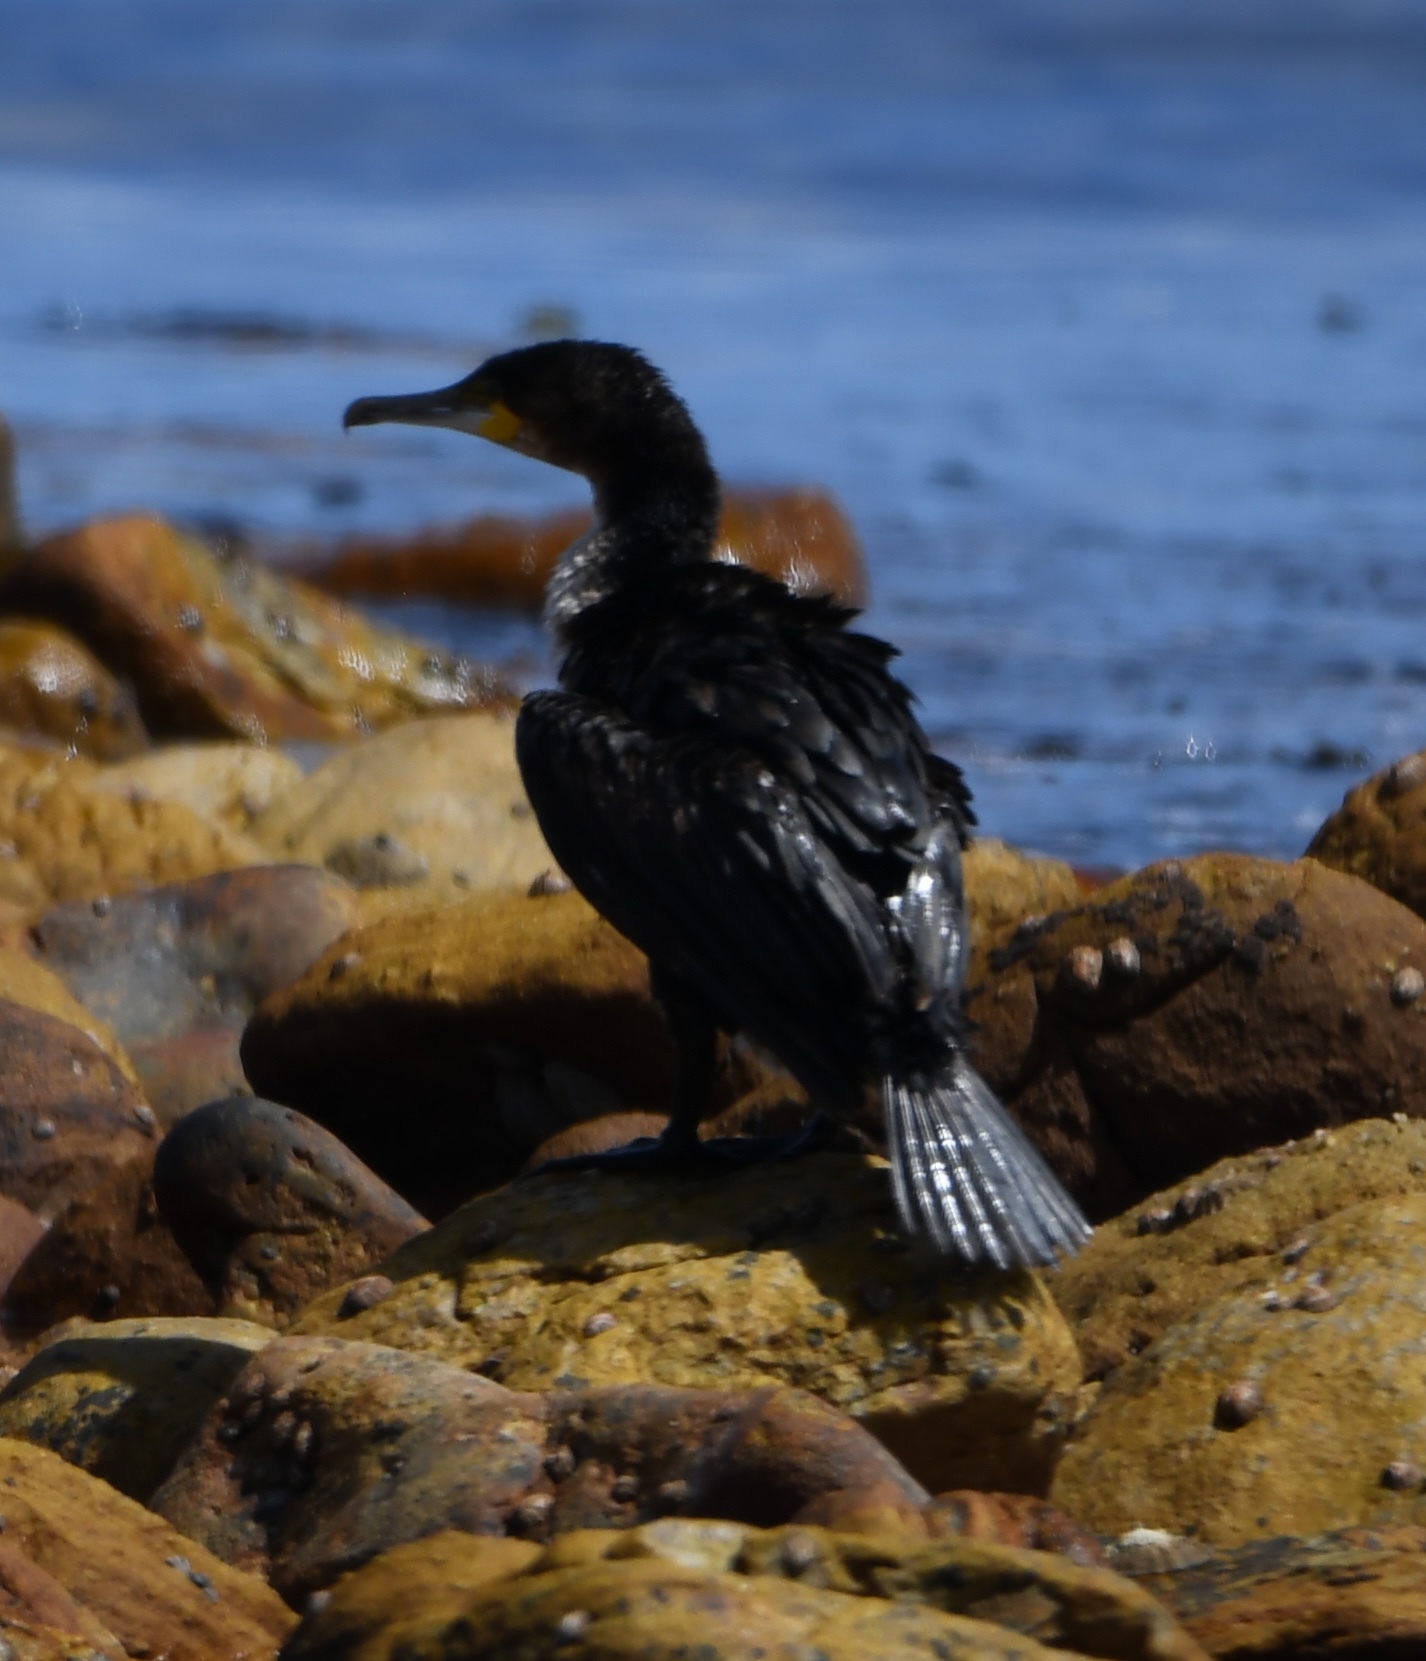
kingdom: Animalia
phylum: Chordata
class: Aves
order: Suliformes
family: Phalacrocoracidae
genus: Phalacrocorax
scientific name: Phalacrocorax carbo
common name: Great cormorant
